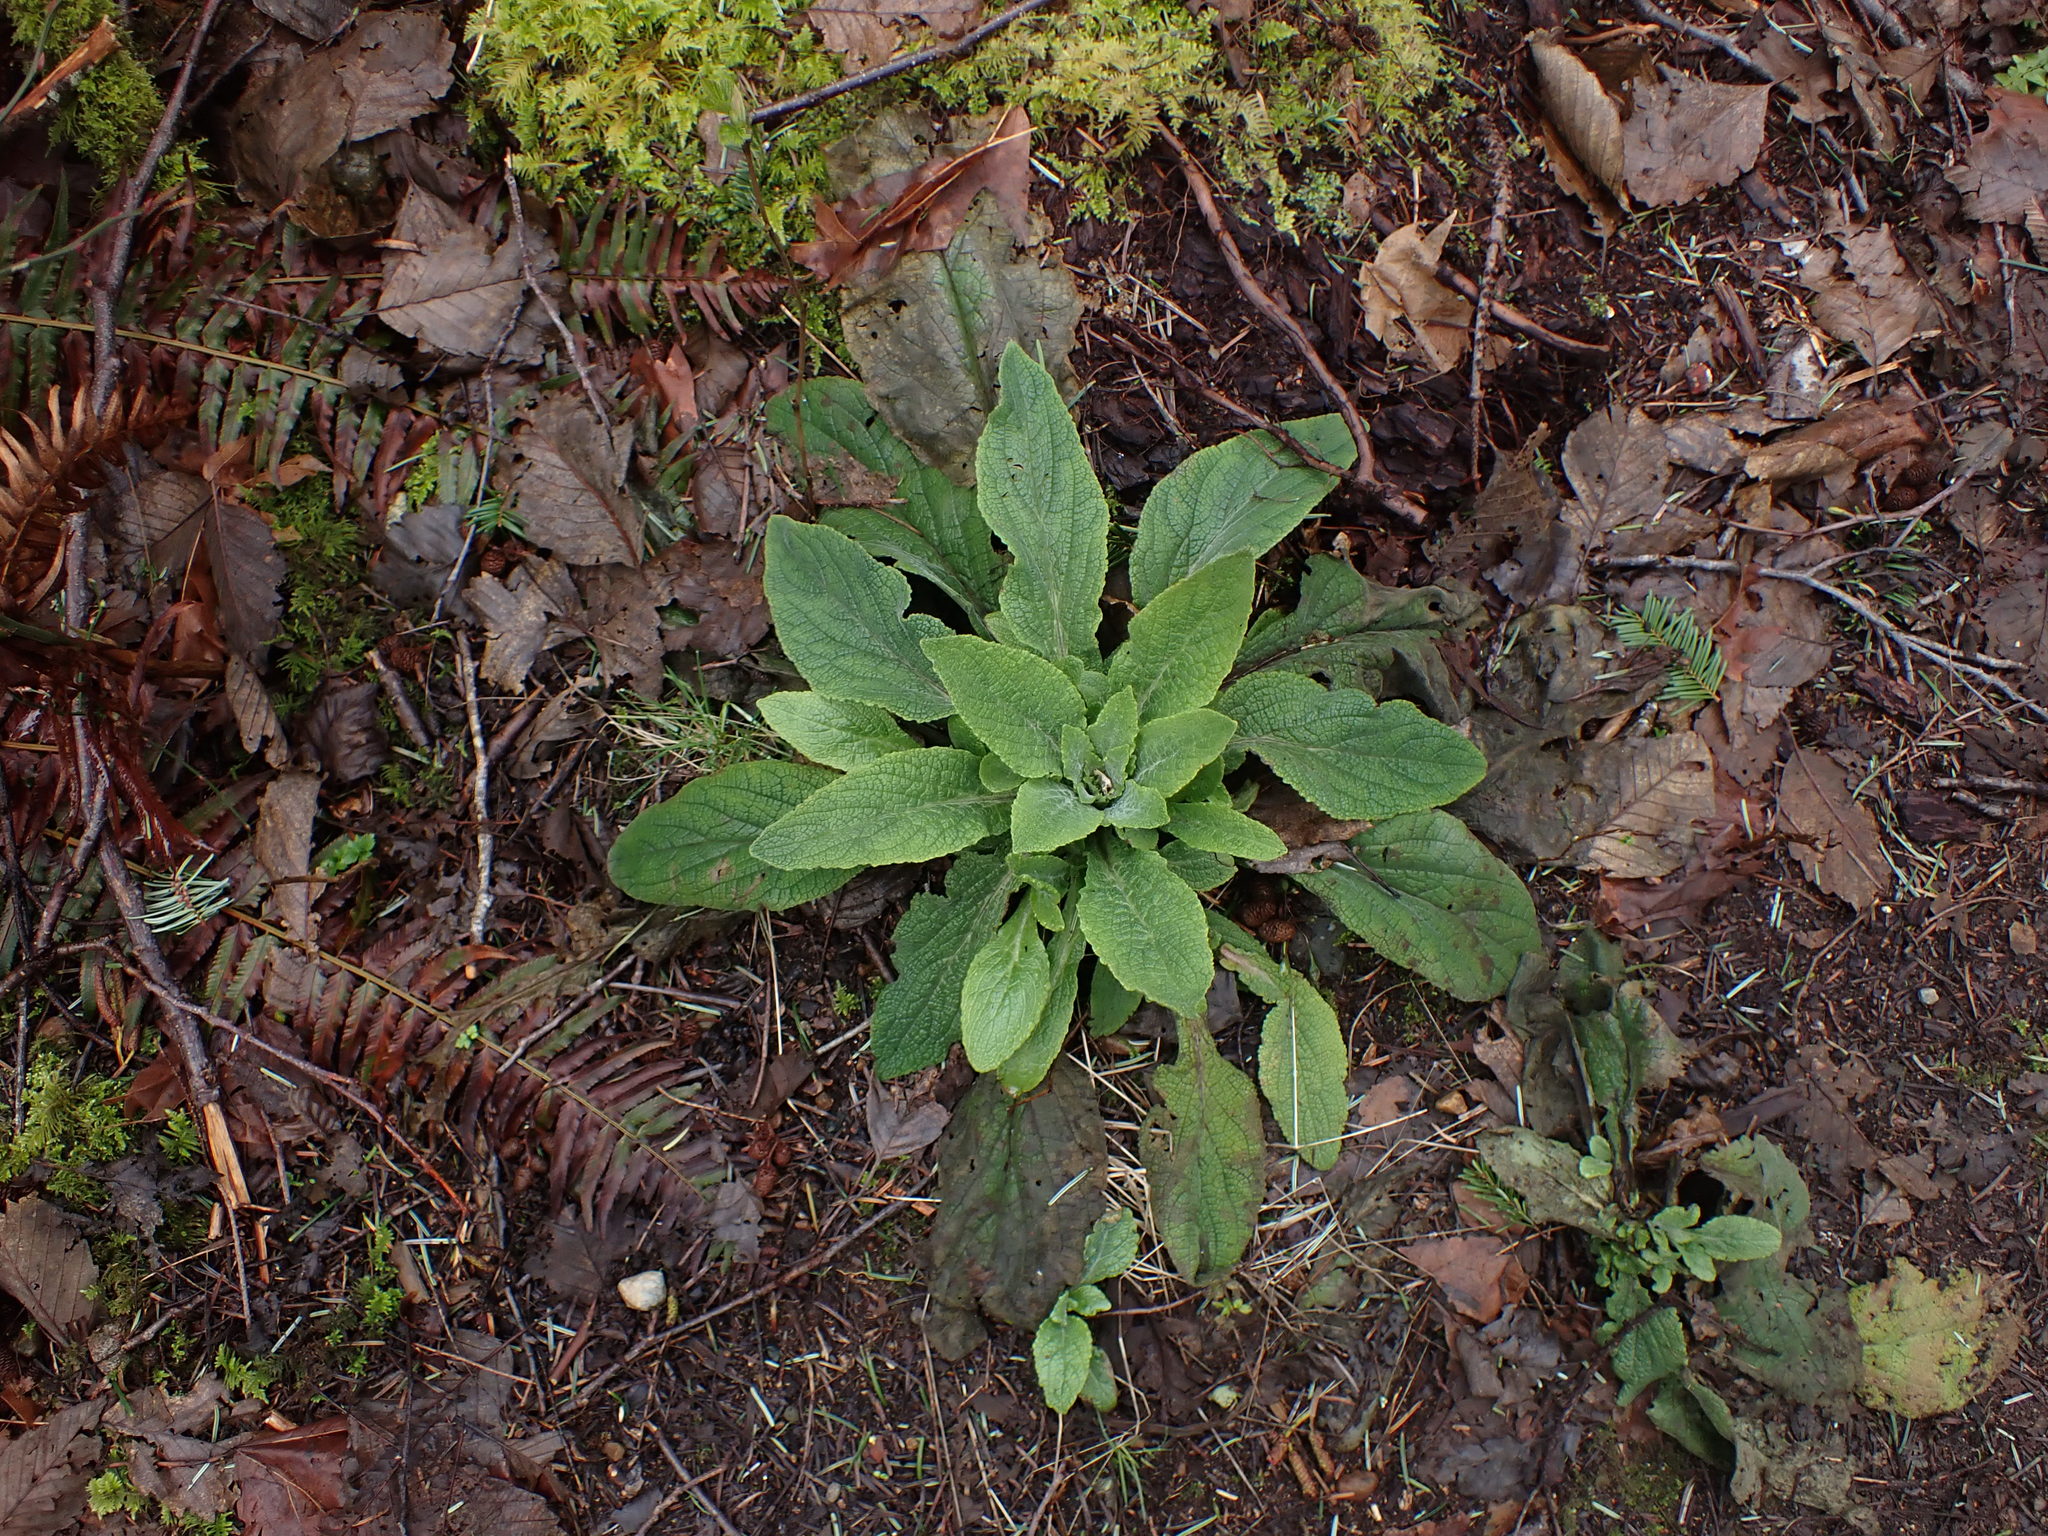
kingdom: Plantae
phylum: Tracheophyta
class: Magnoliopsida
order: Lamiales
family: Plantaginaceae
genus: Digitalis
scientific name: Digitalis purpurea
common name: Foxglove
